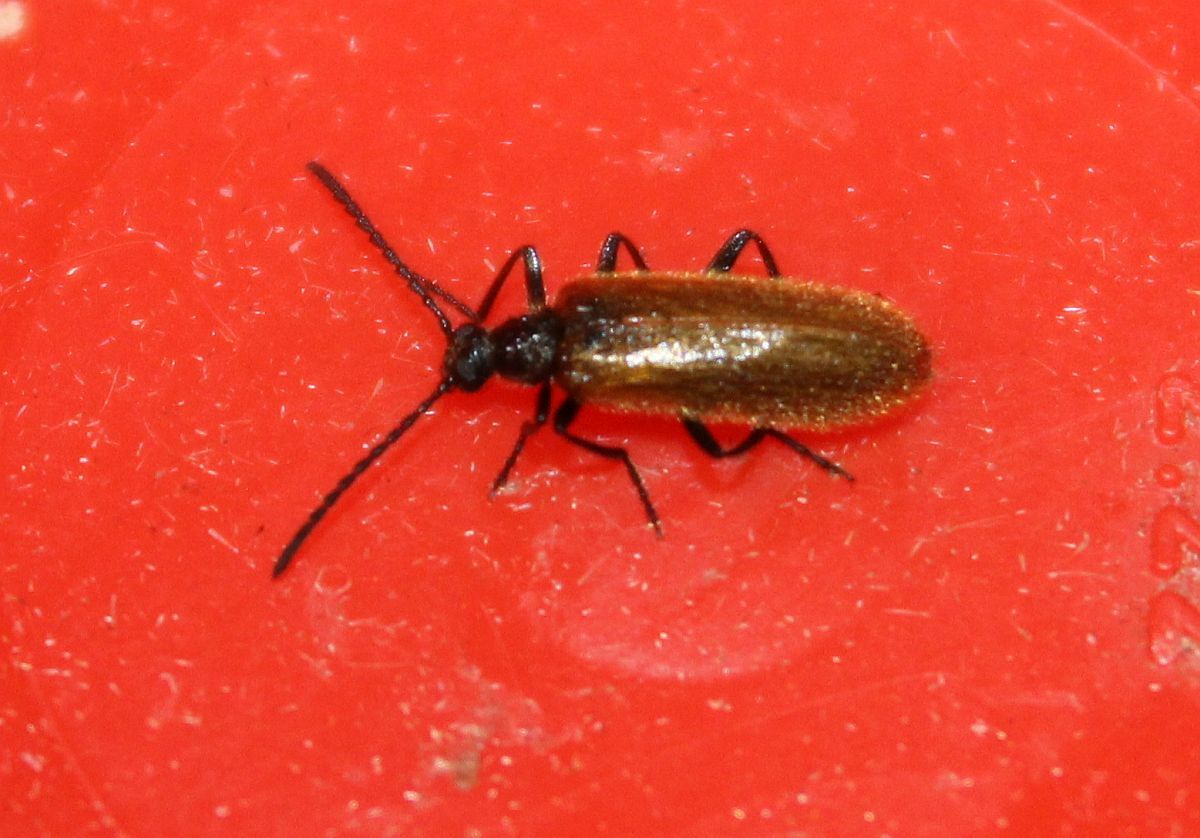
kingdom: Animalia
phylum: Arthropoda
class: Insecta
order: Coleoptera
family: Tenebrionidae
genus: Lagria
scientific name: Lagria hirta
